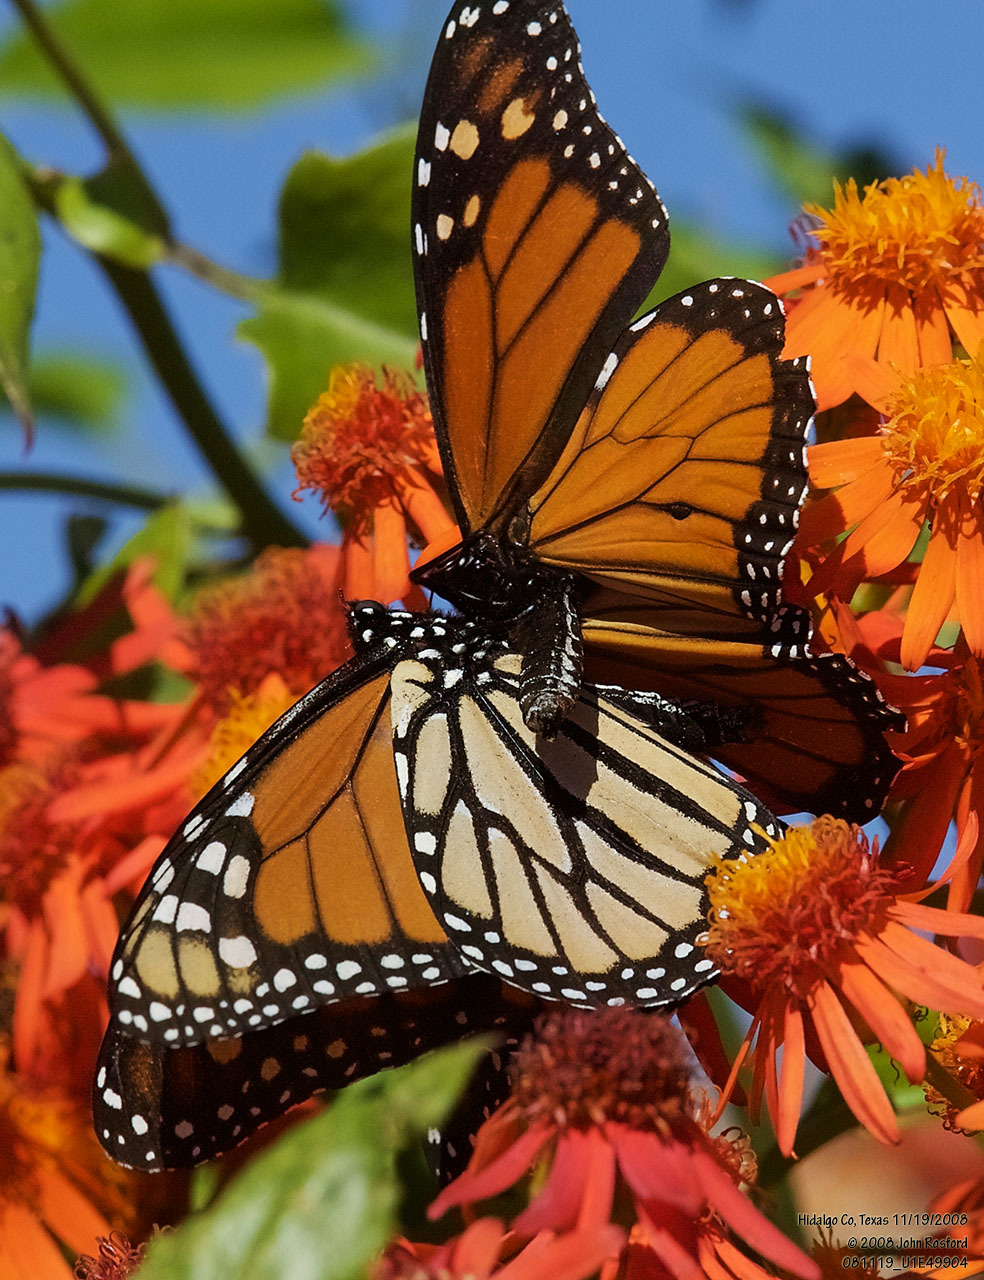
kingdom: Animalia
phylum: Arthropoda
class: Insecta
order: Lepidoptera
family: Nymphalidae
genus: Danaus
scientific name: Danaus plexippus
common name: Monarch
